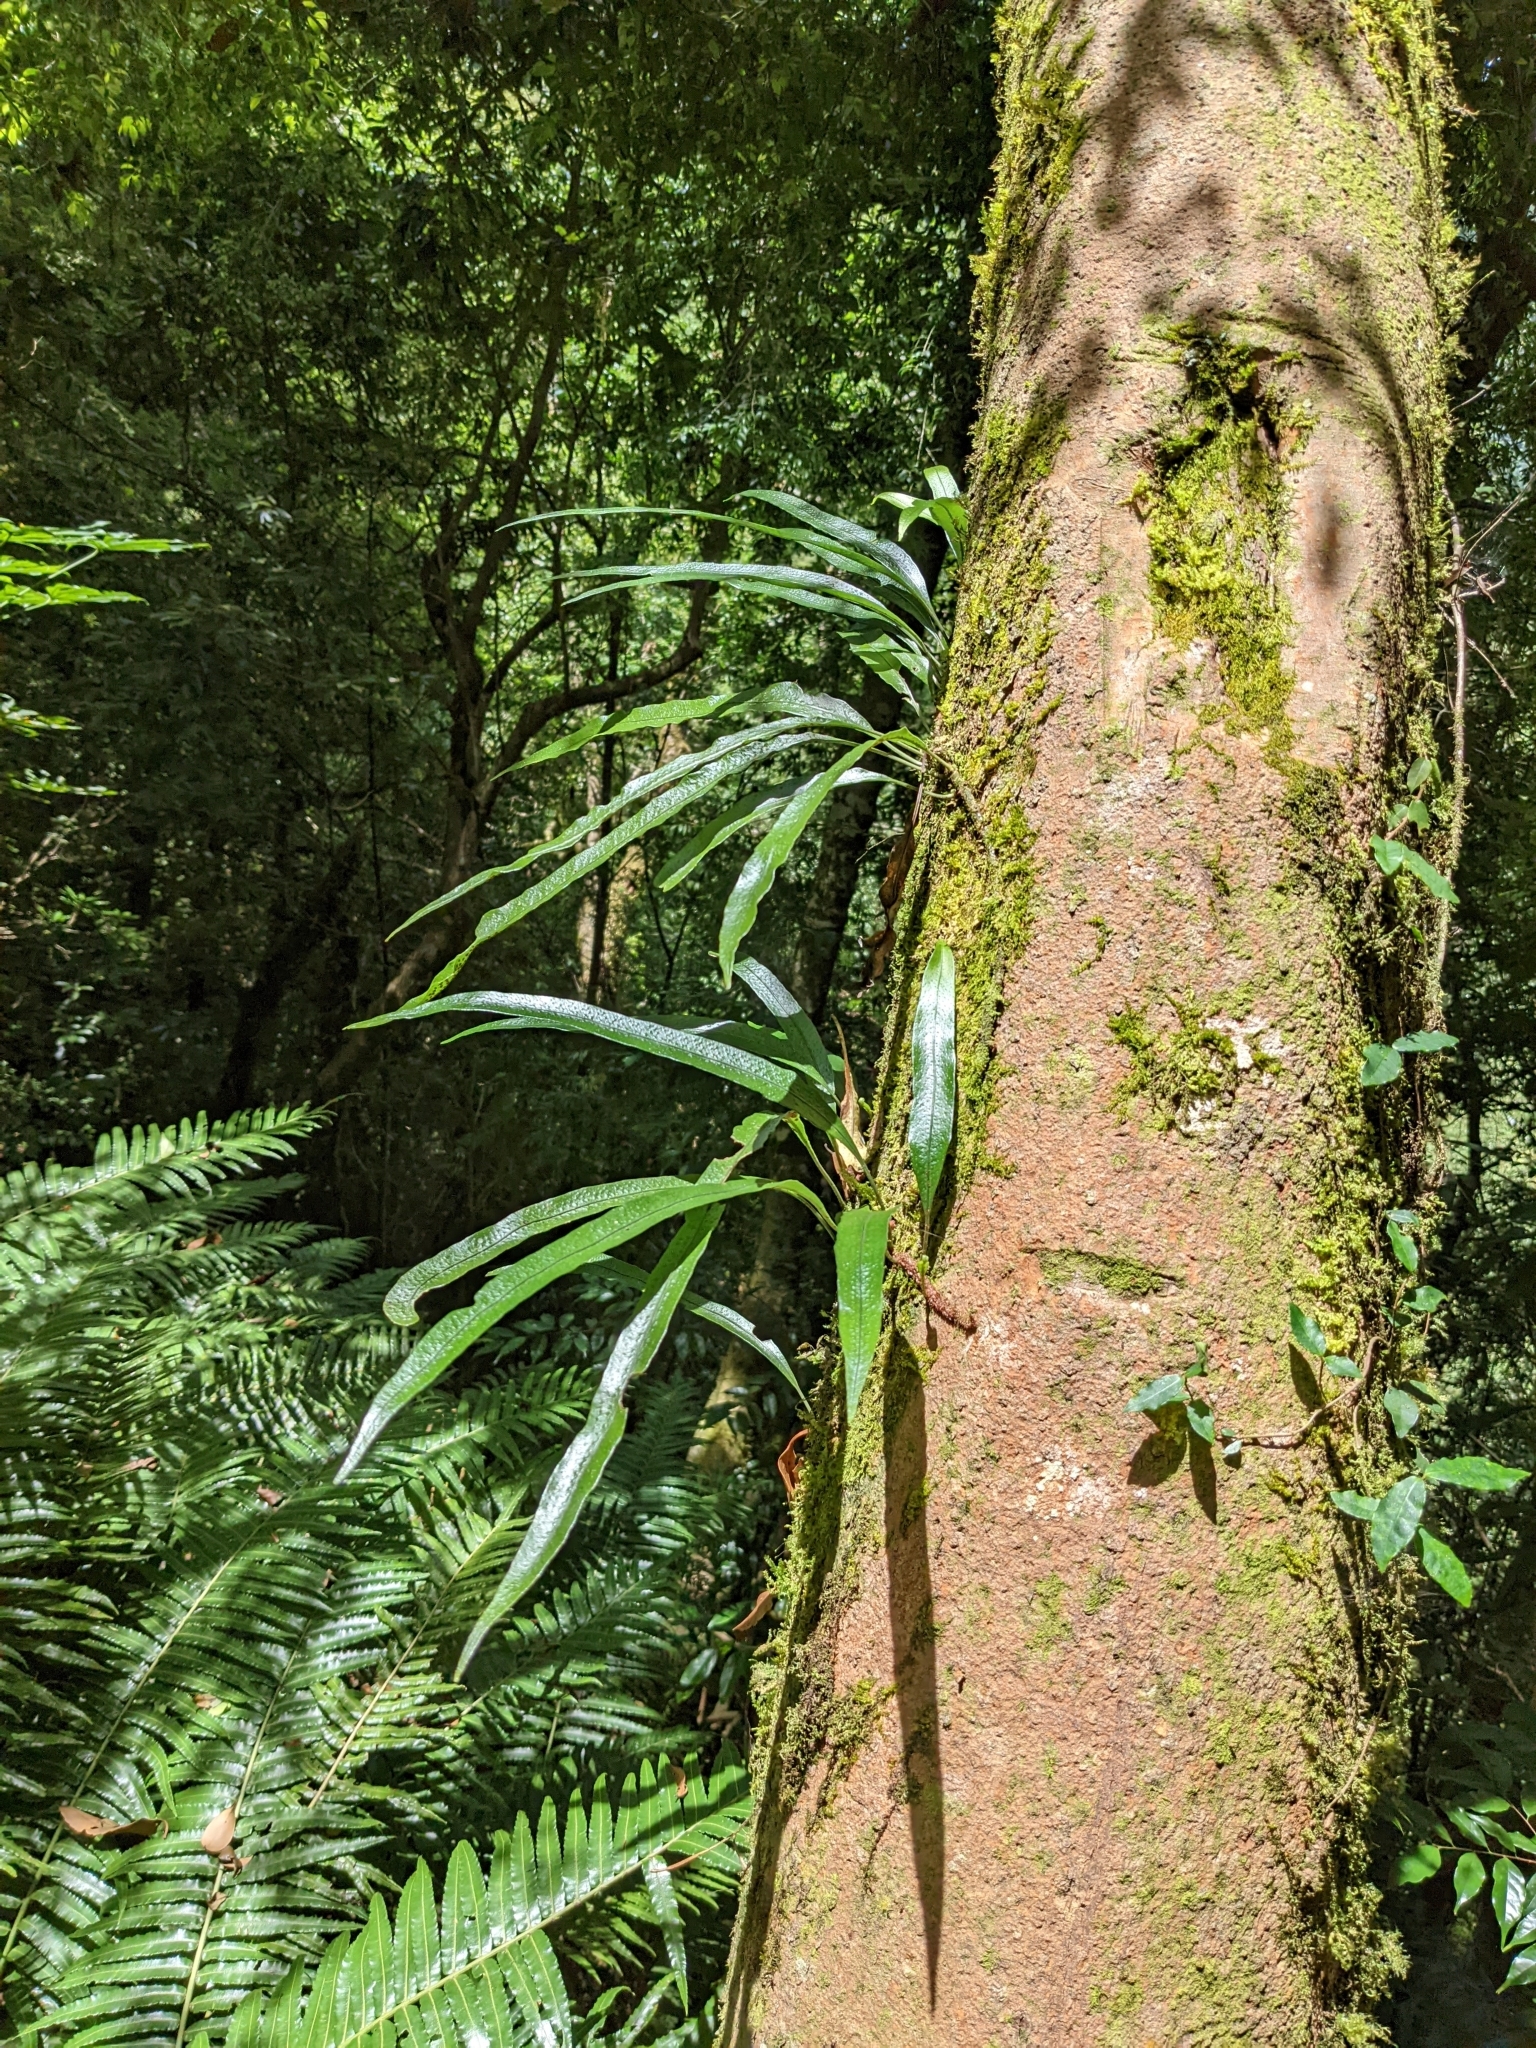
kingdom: Plantae
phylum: Tracheophyta
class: Polypodiopsida
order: Polypodiales
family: Polypodiaceae
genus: Lepisorus
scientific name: Lepisorus superficialis
